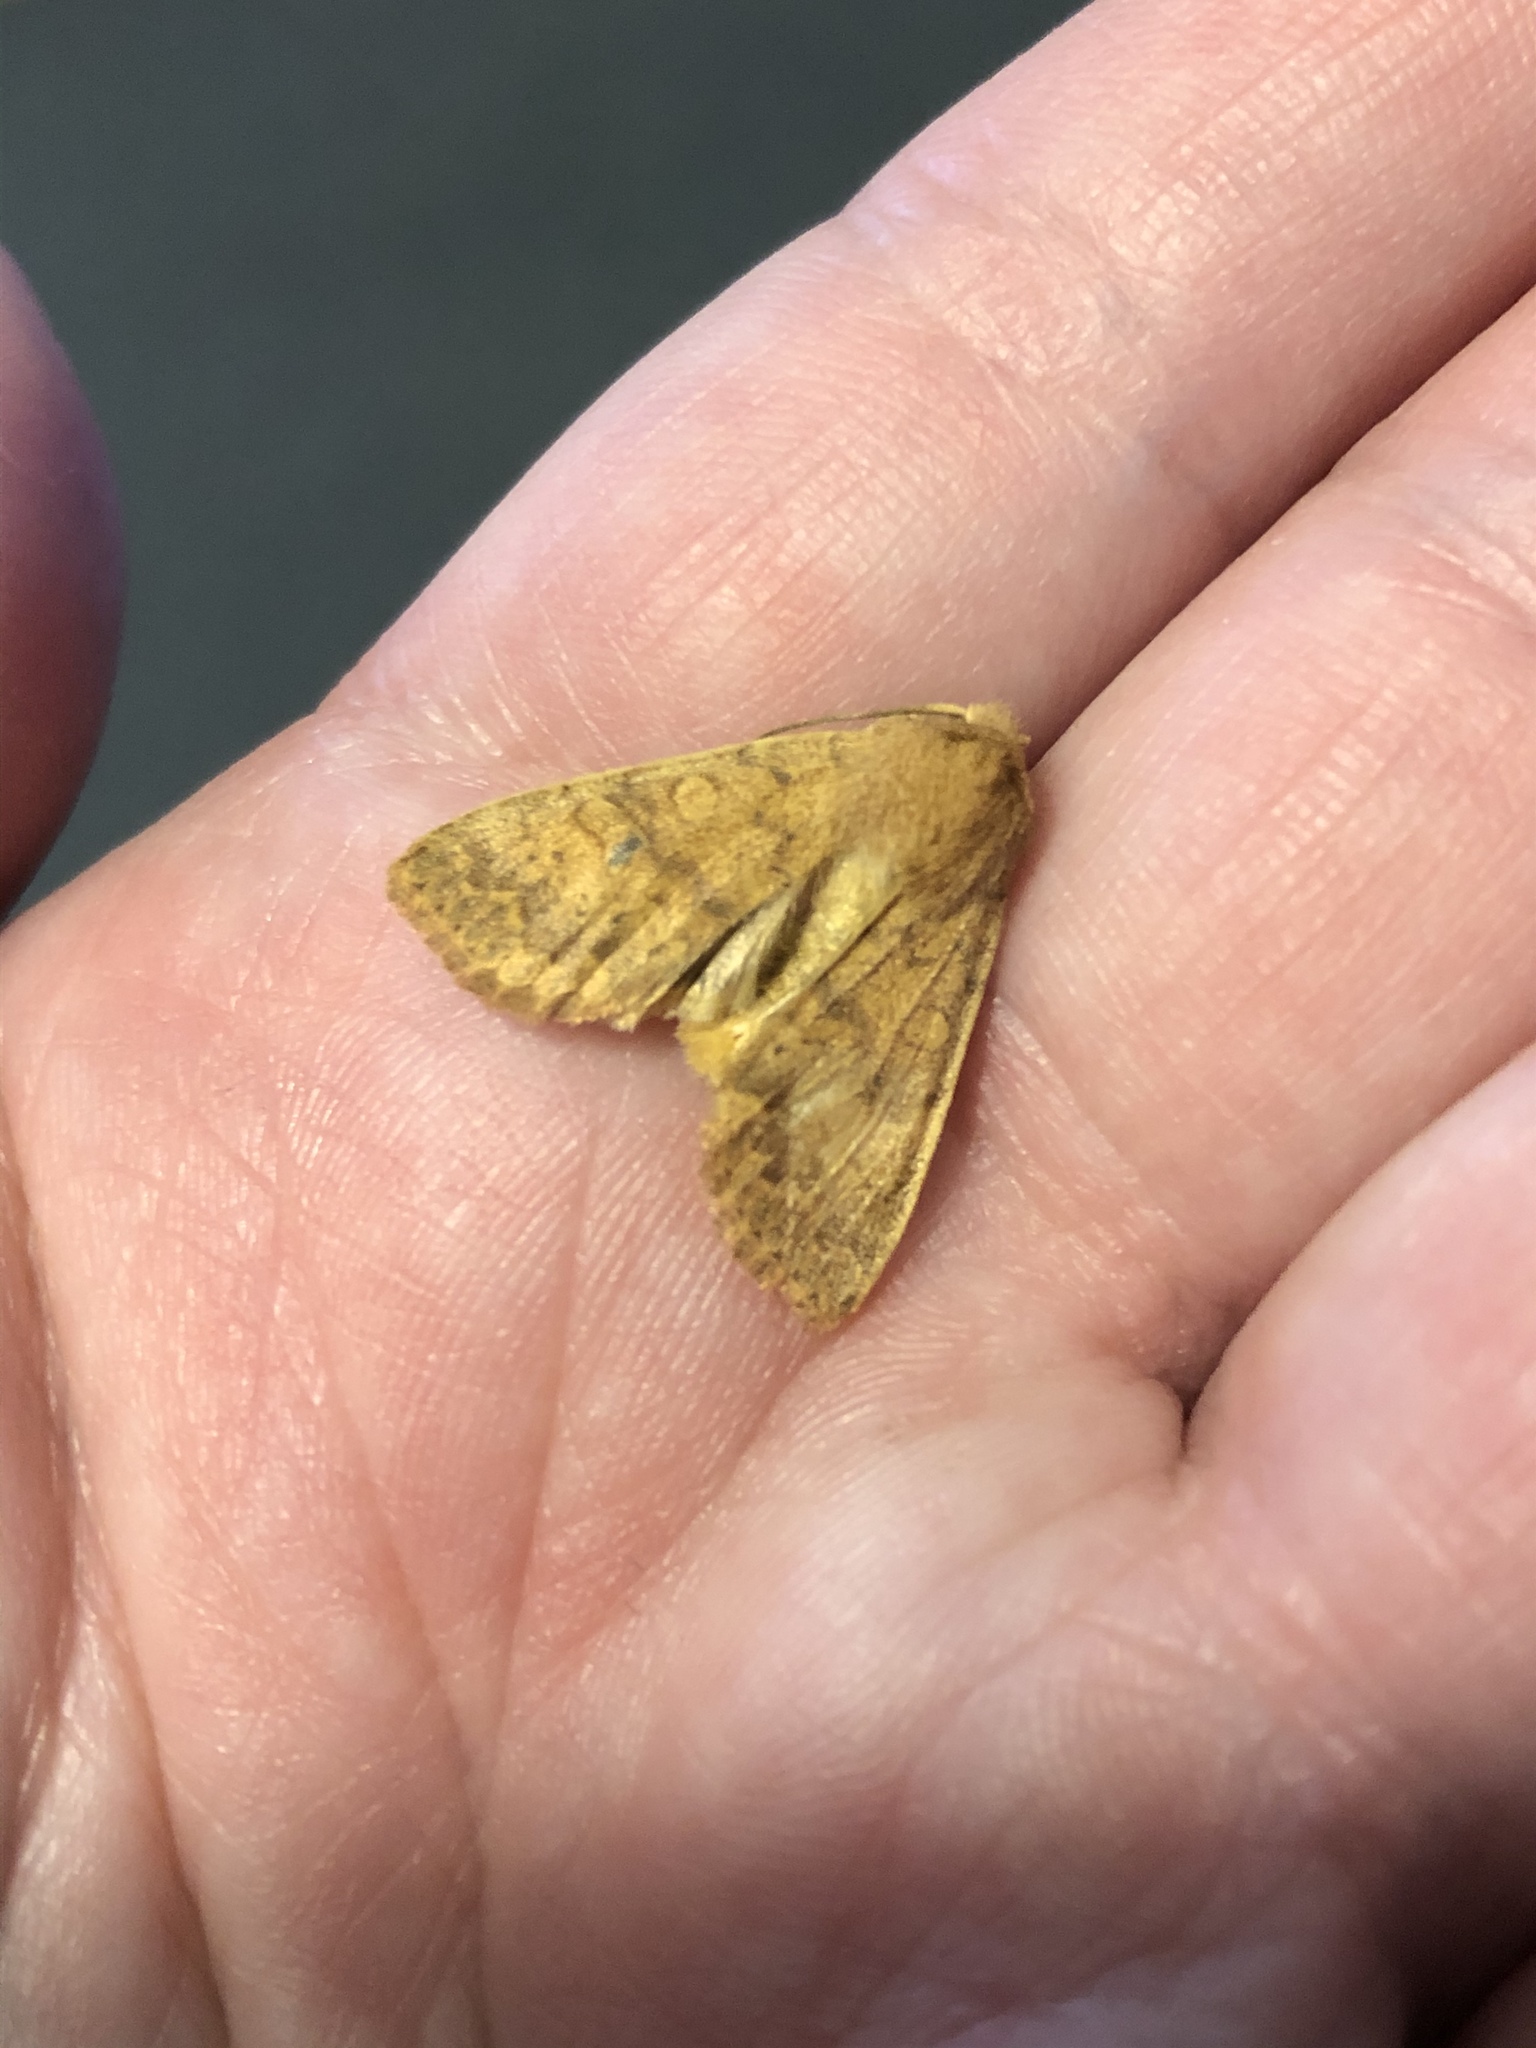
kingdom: Animalia
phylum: Arthropoda
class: Insecta
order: Lepidoptera
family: Noctuidae
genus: Agrochola
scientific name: Agrochola bicolorago
